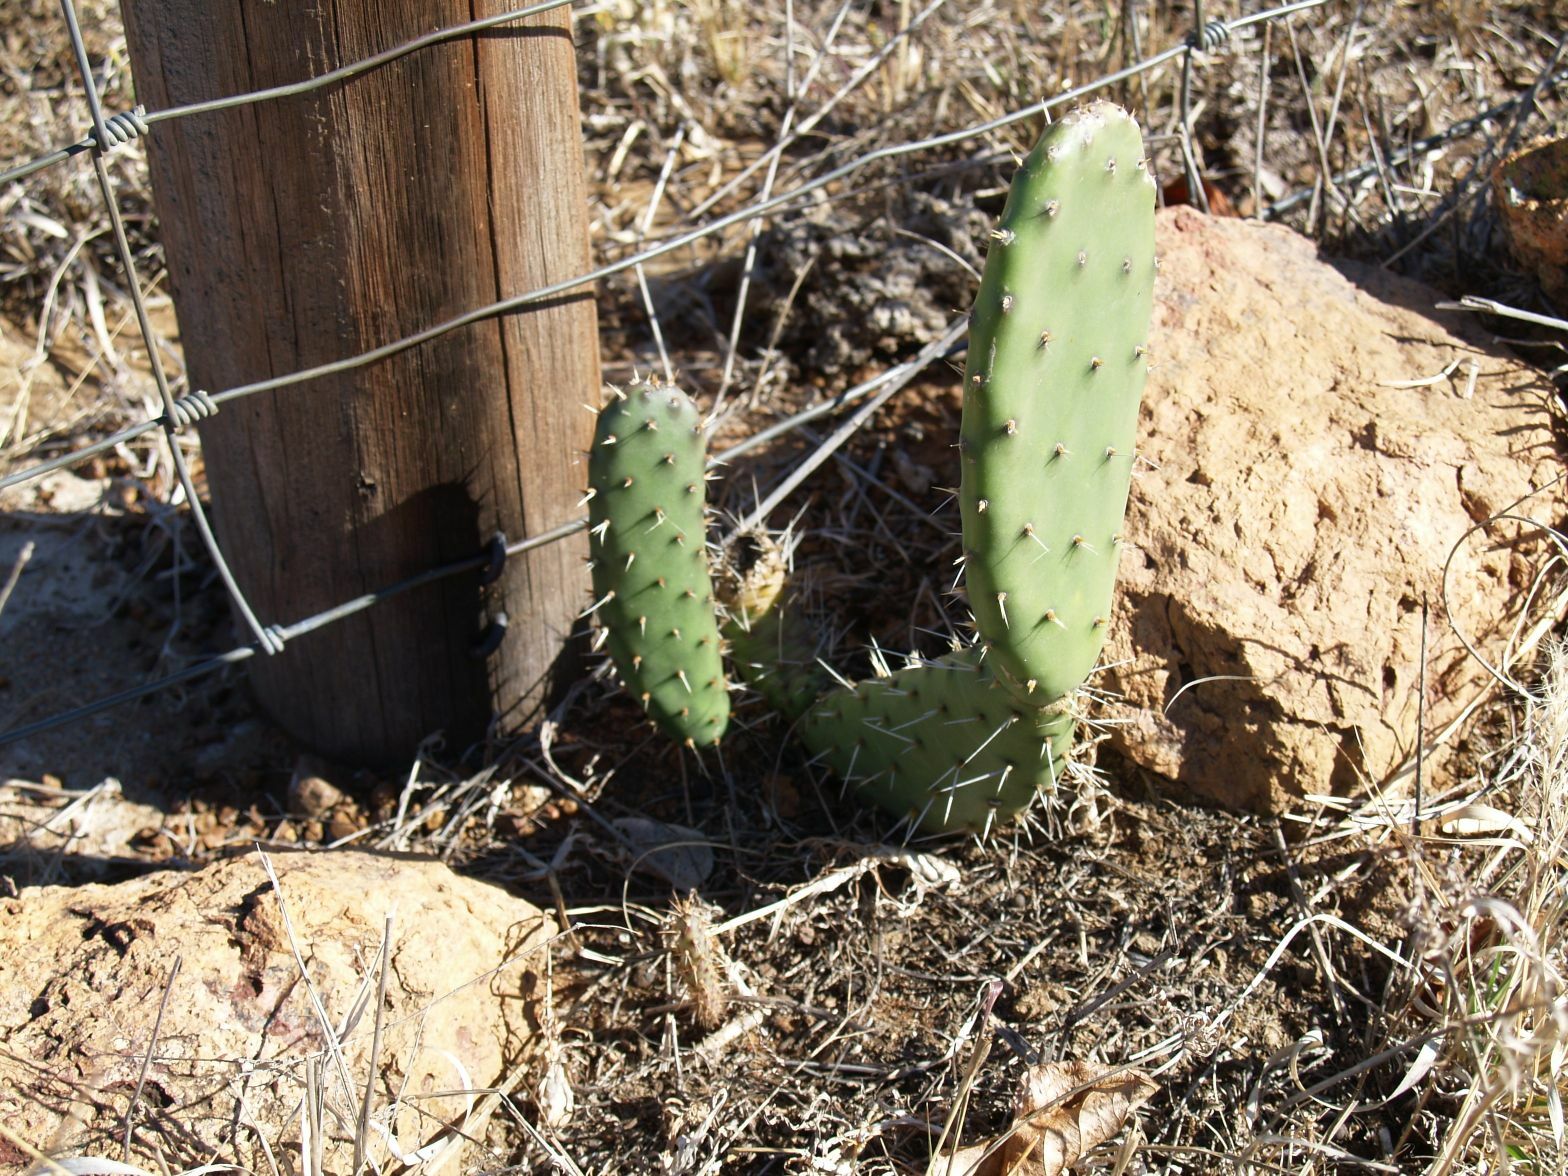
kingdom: Plantae
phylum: Tracheophyta
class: Magnoliopsida
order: Caryophyllales
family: Cactaceae
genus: Opuntia
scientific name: Opuntia ficus-indica
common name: Barbary fig
